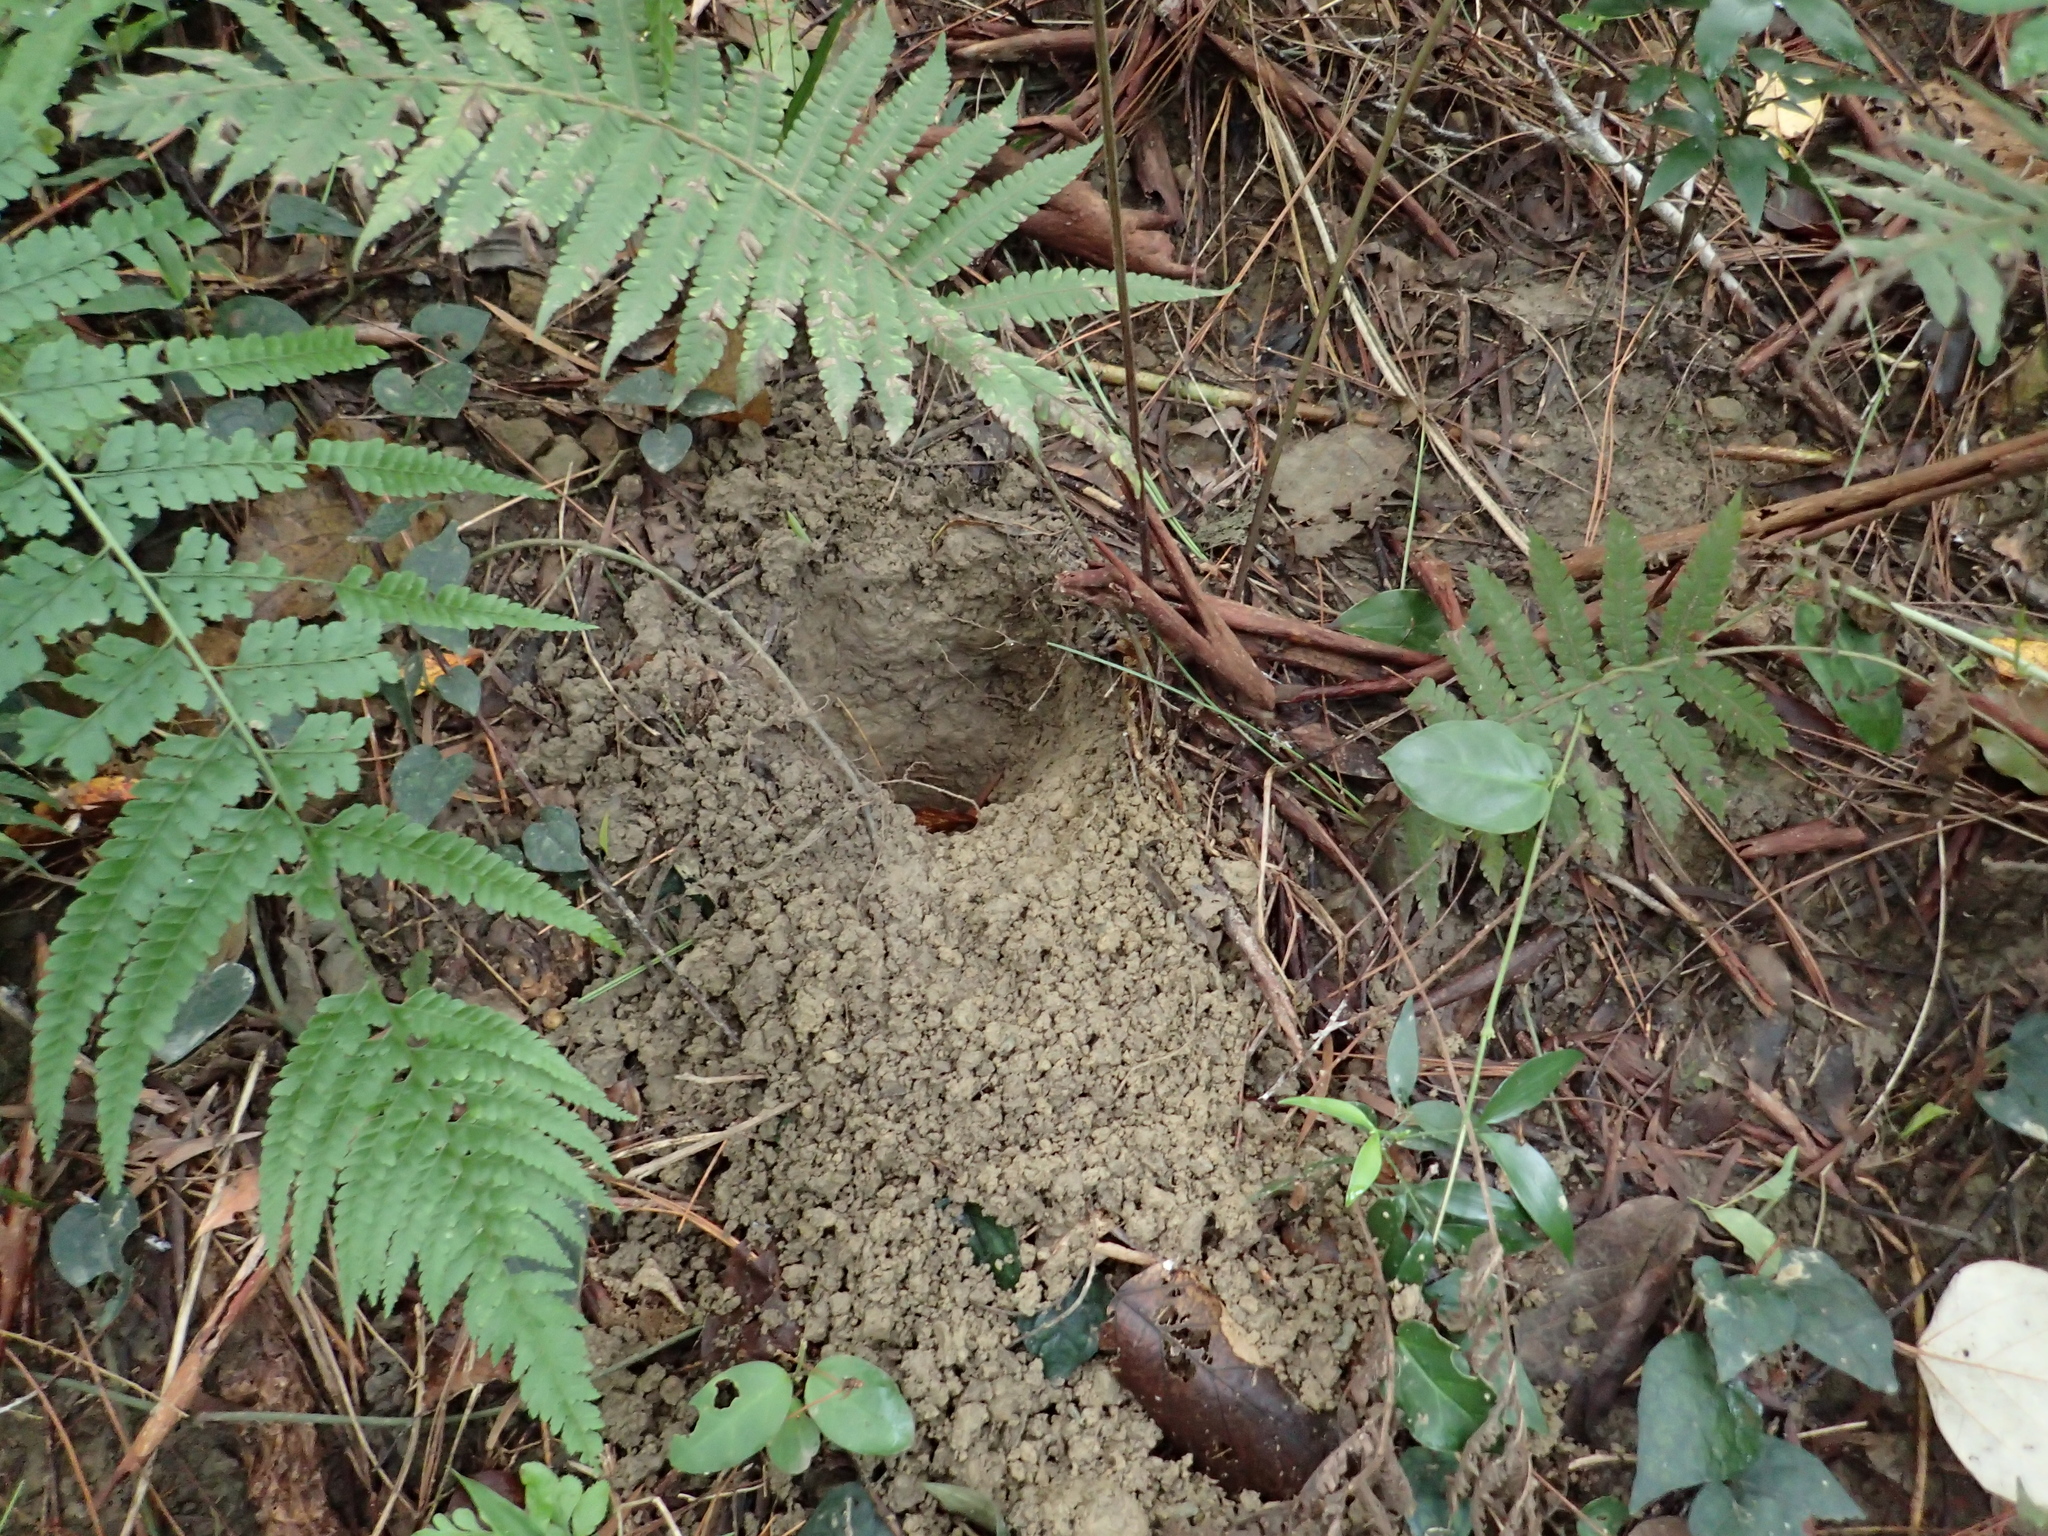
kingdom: Animalia
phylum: Chordata
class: Mammalia
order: Pholidota
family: Manidae
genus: Manis
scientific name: Manis pentadactyla
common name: Chinese pangolin
